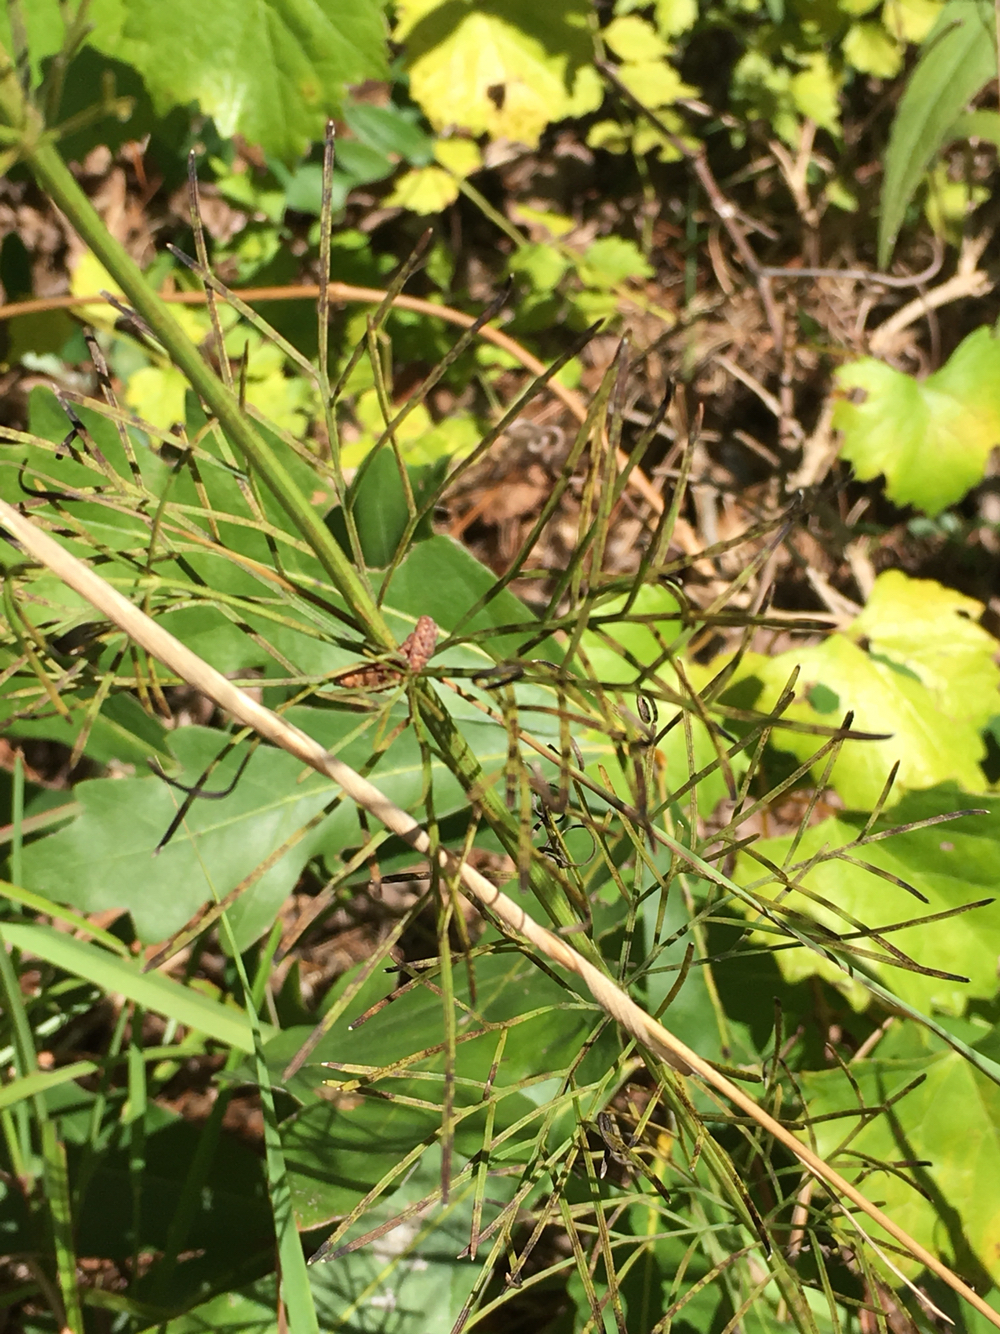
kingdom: Plantae
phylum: Tracheophyta
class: Magnoliopsida
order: Asterales
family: Asteraceae
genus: Coreopsis
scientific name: Coreopsis verticillata
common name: Whorled tickseed
